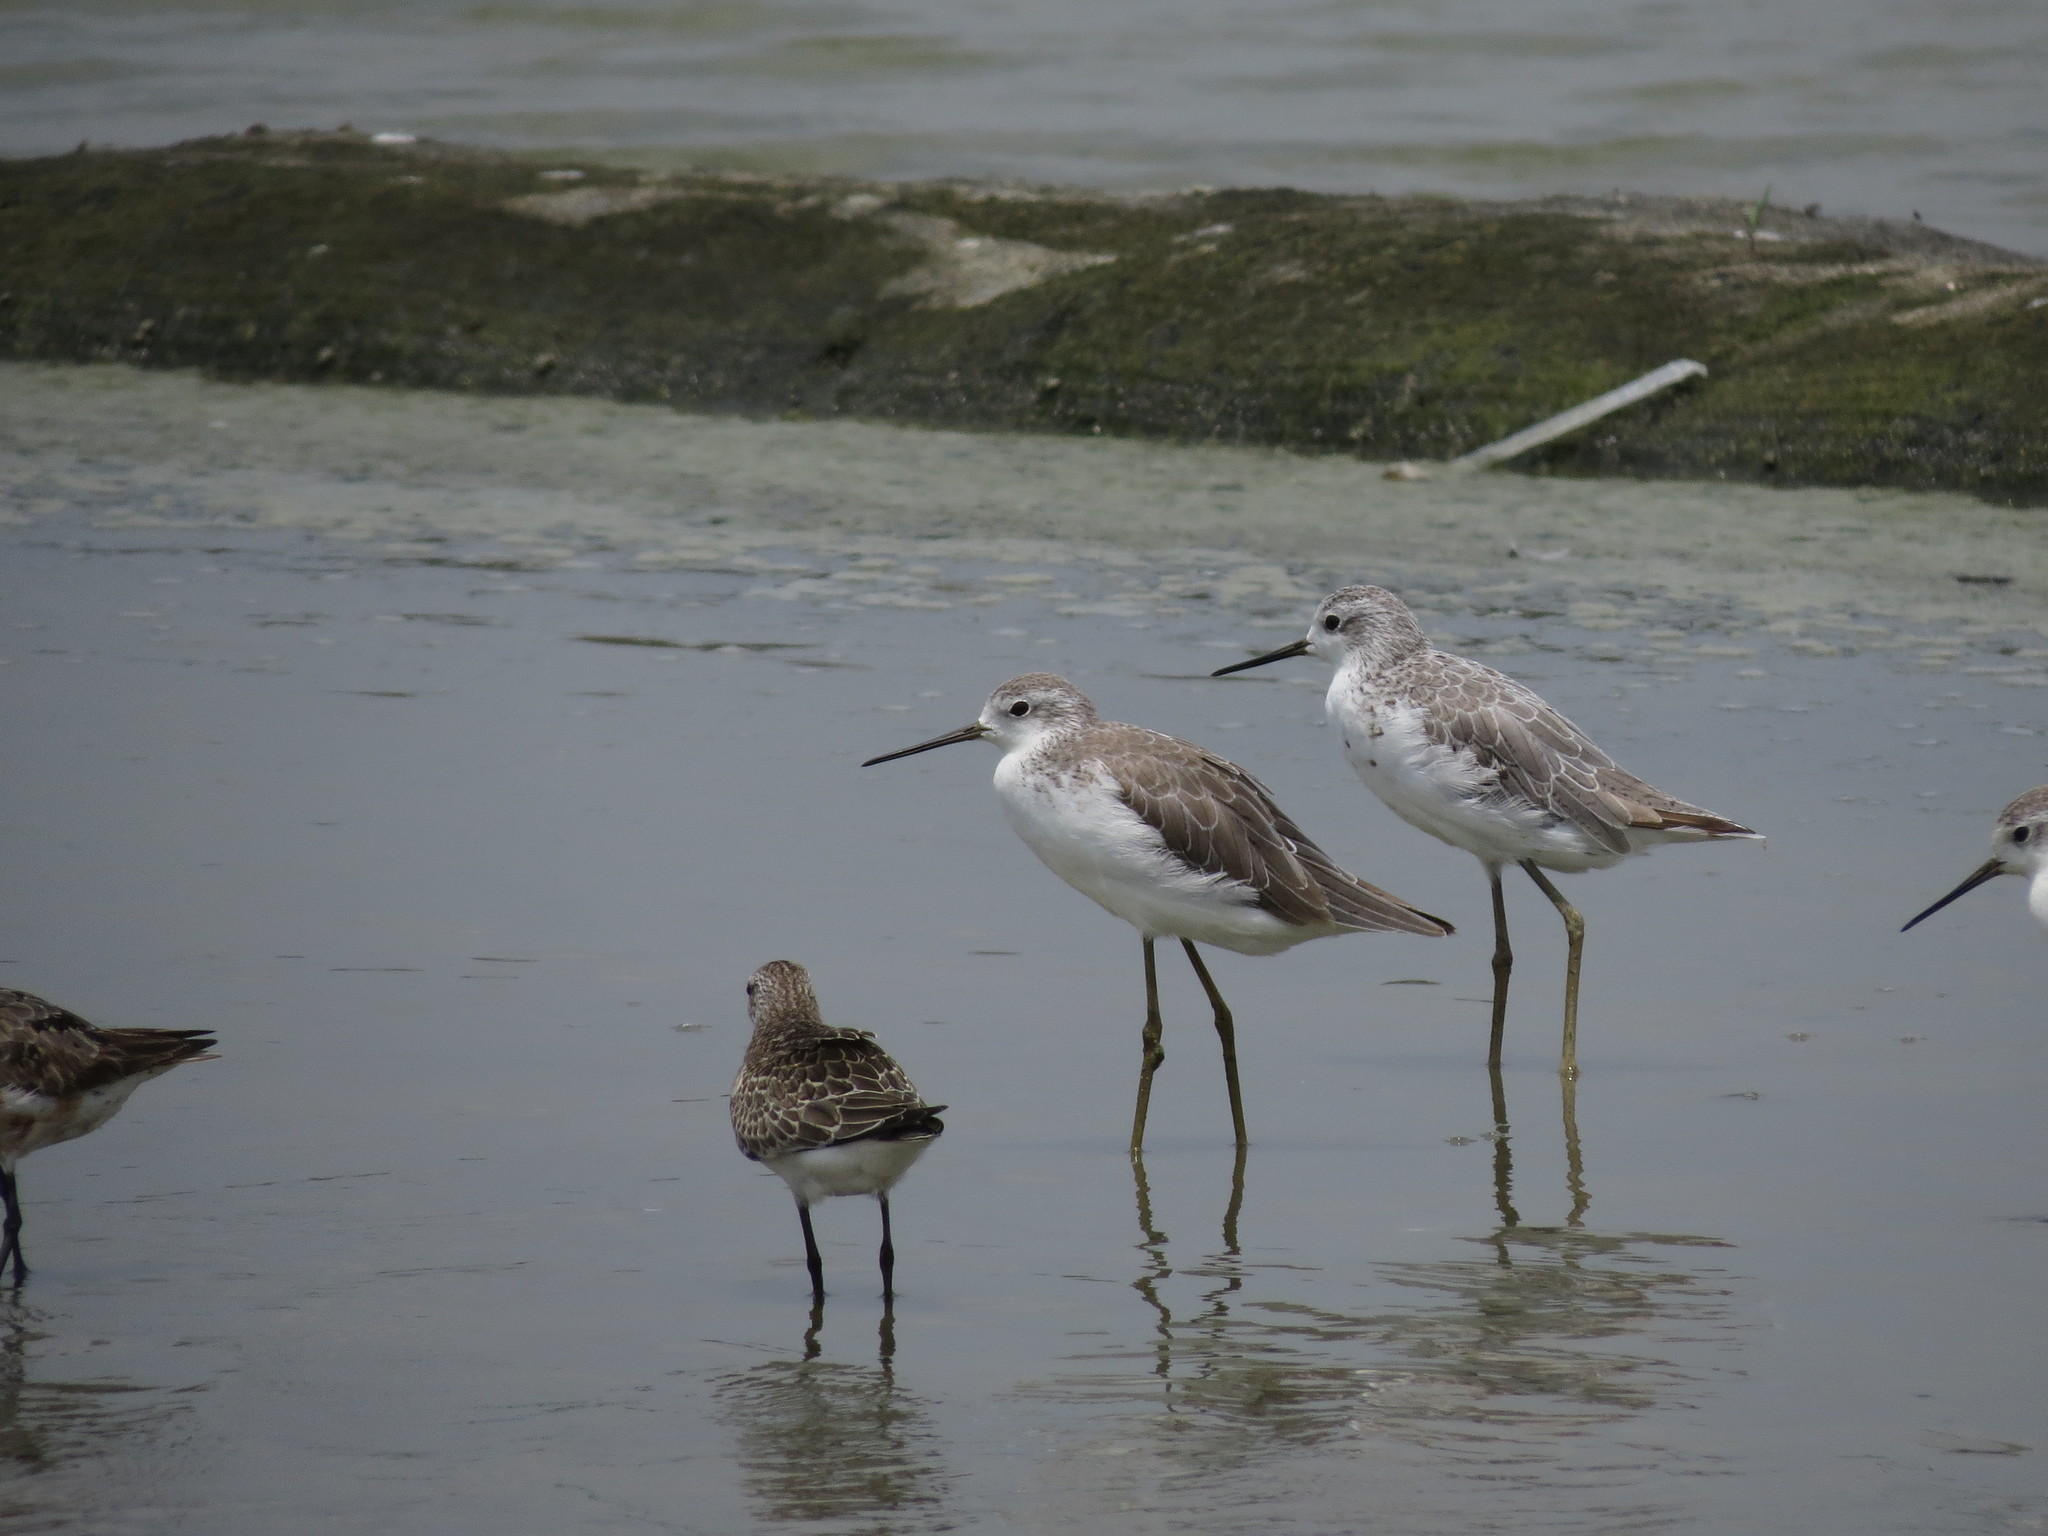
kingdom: Animalia
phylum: Chordata
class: Aves
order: Charadriiformes
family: Scolopacidae
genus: Tringa
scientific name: Tringa stagnatilis
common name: Marsh sandpiper
